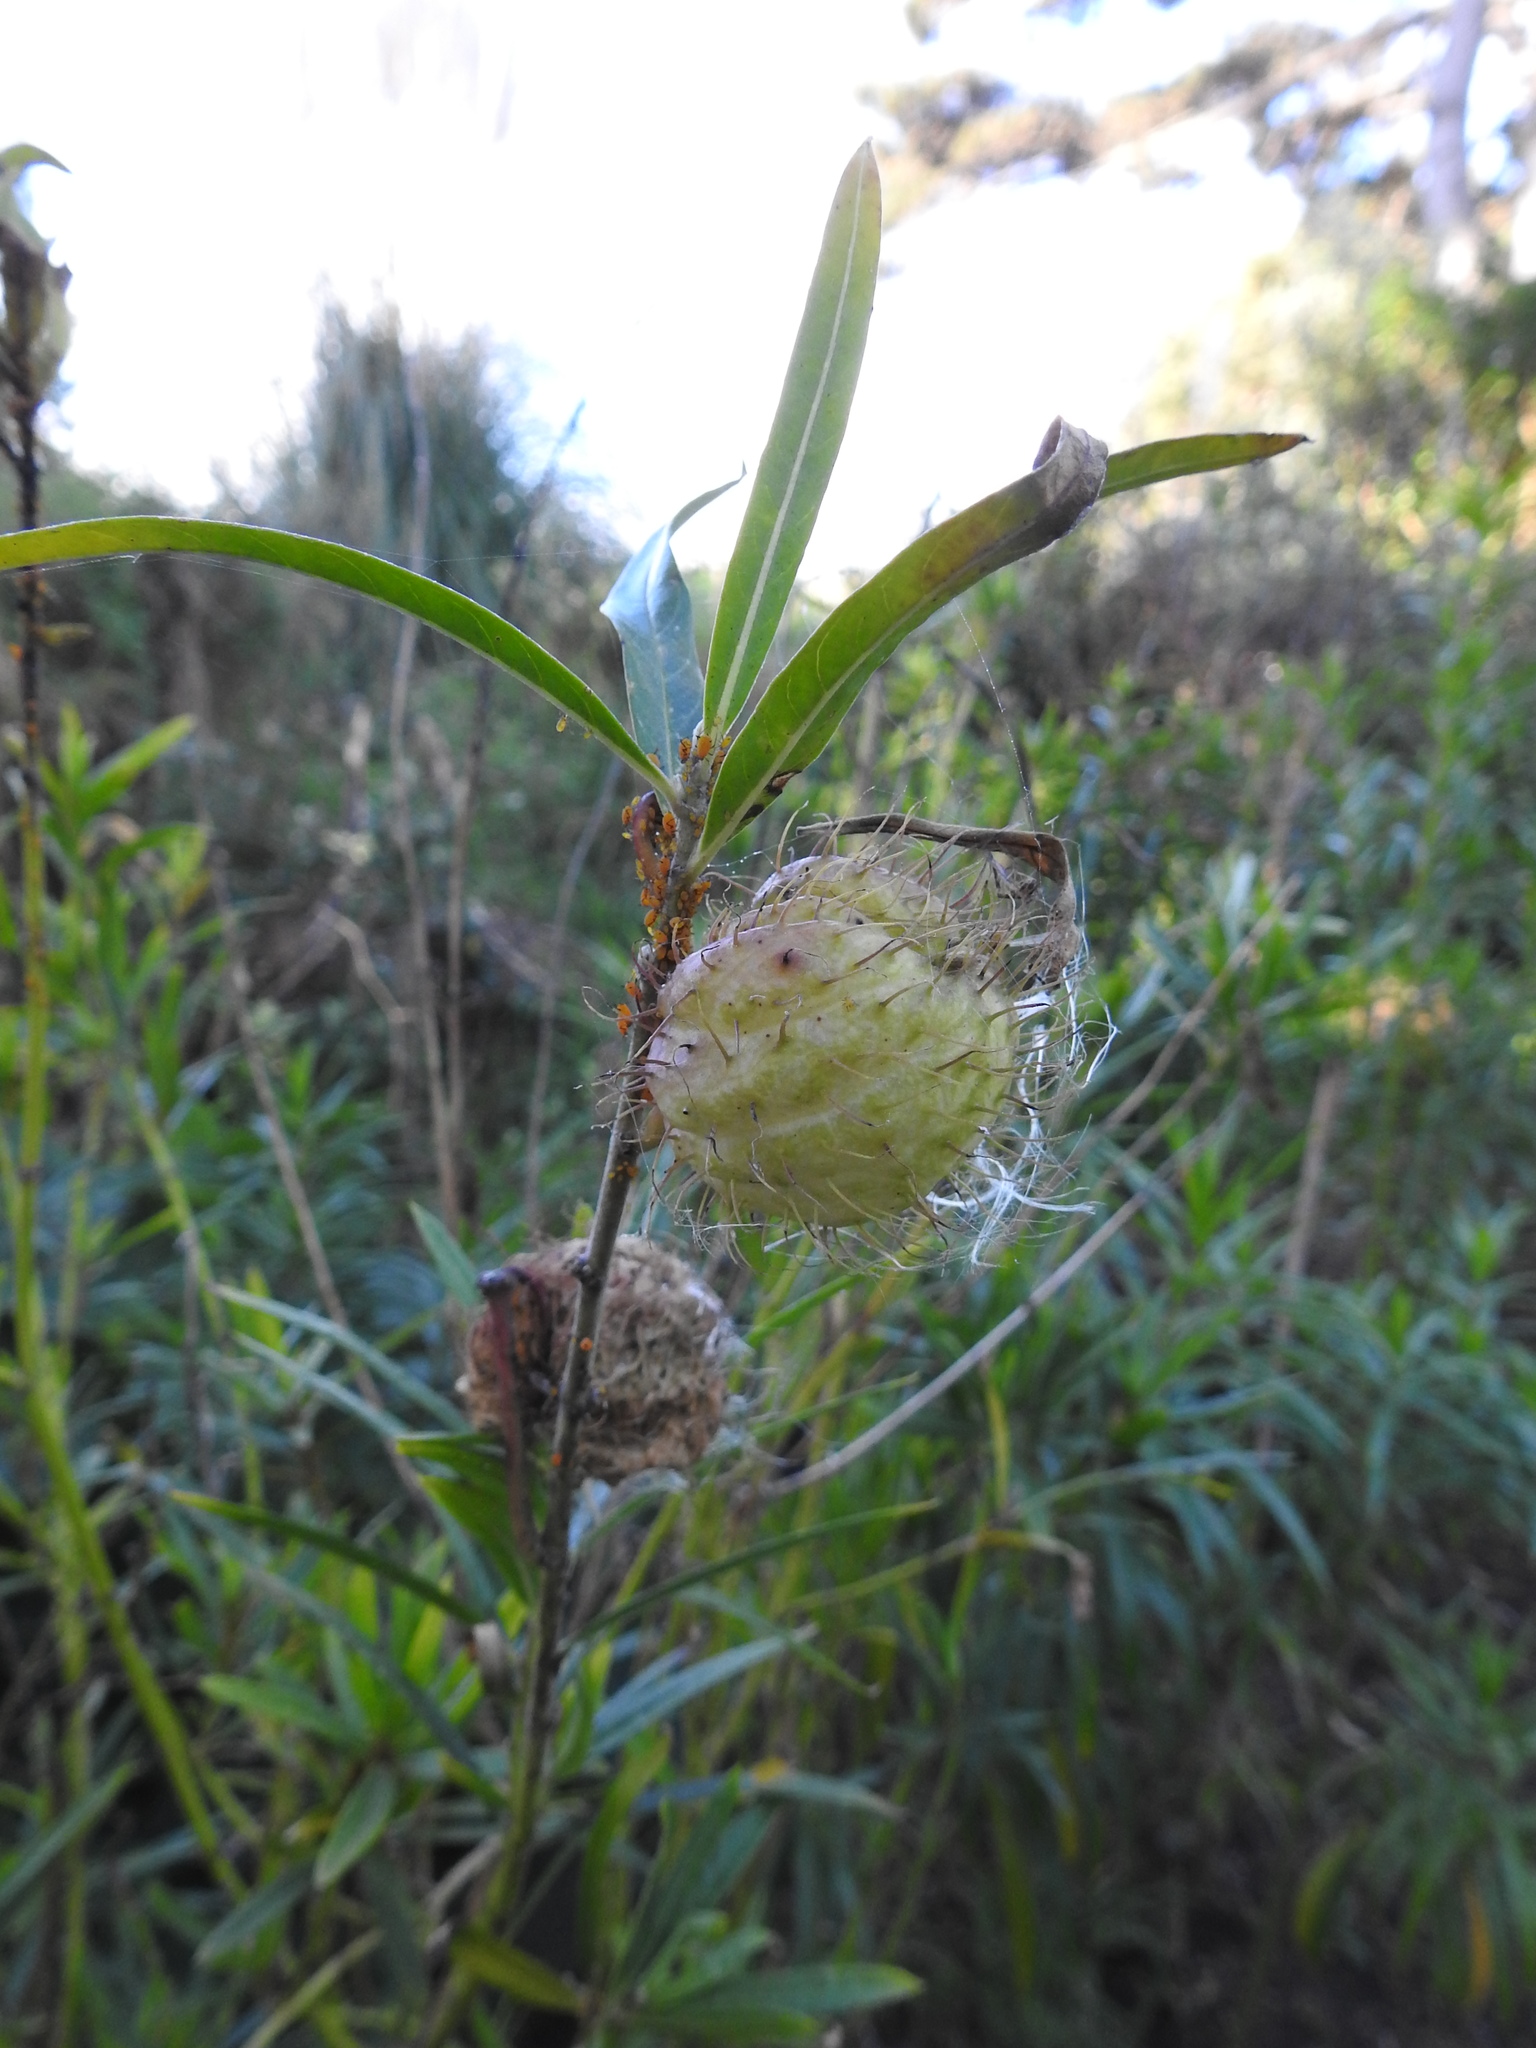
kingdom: Plantae
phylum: Tracheophyta
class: Magnoliopsida
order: Gentianales
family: Apocynaceae
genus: Gomphocarpus
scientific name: Gomphocarpus physocarpus
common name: Balloon cotton bush
